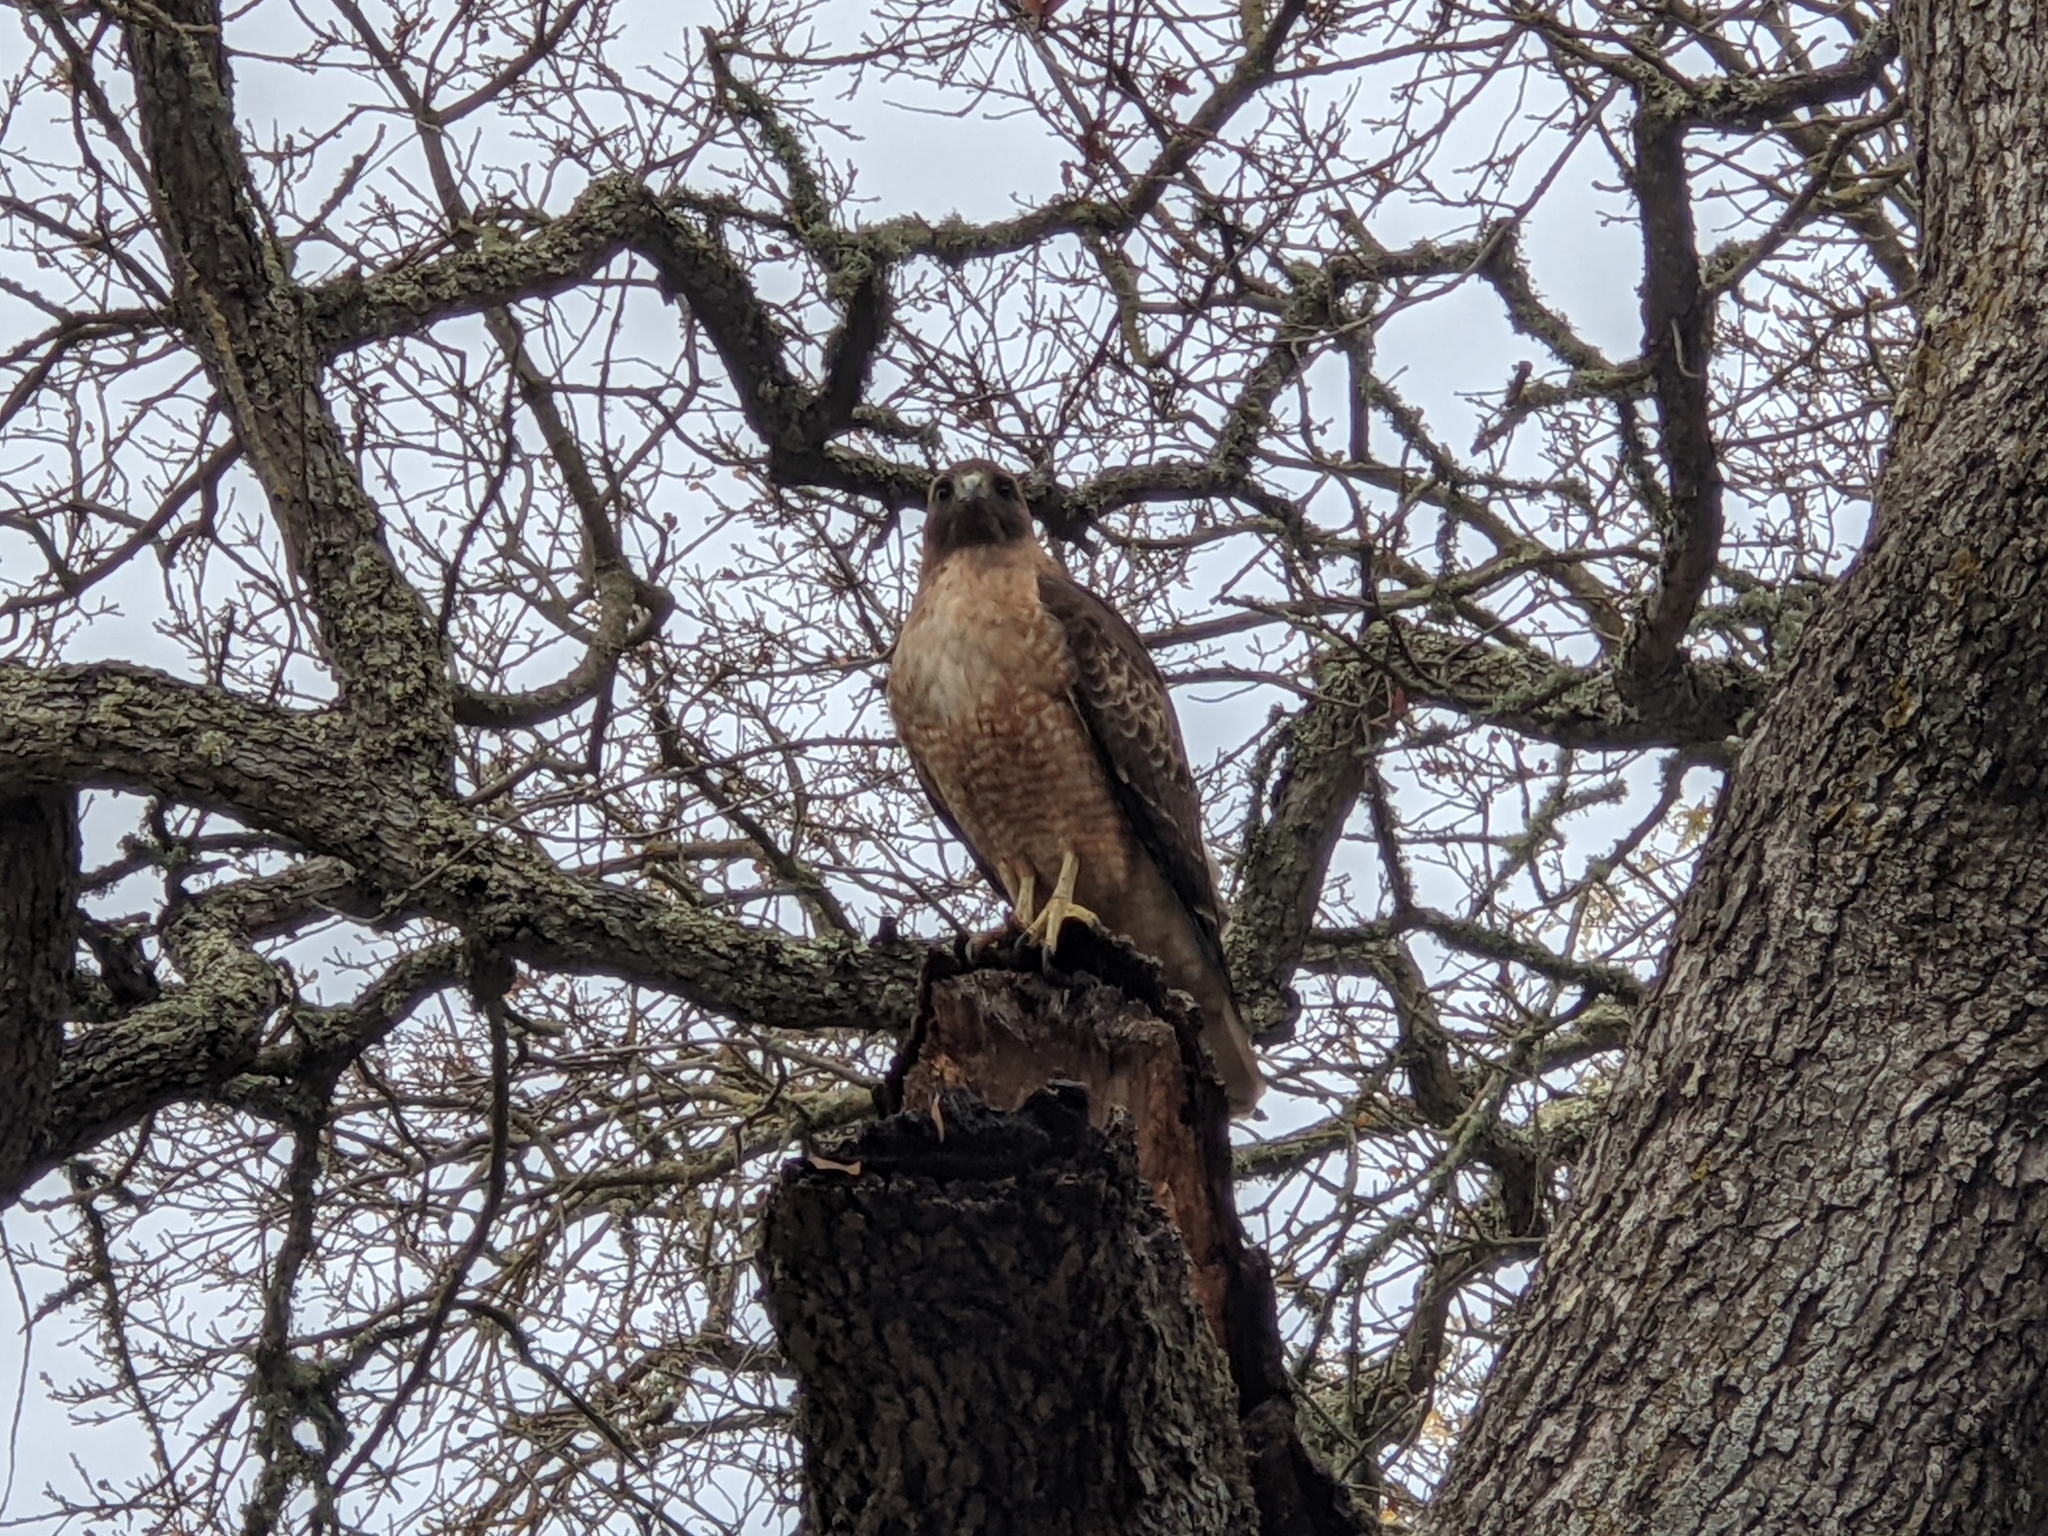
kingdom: Animalia
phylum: Chordata
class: Aves
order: Accipitriformes
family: Accipitridae
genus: Buteo
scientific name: Buteo jamaicensis
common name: Red-tailed hawk
